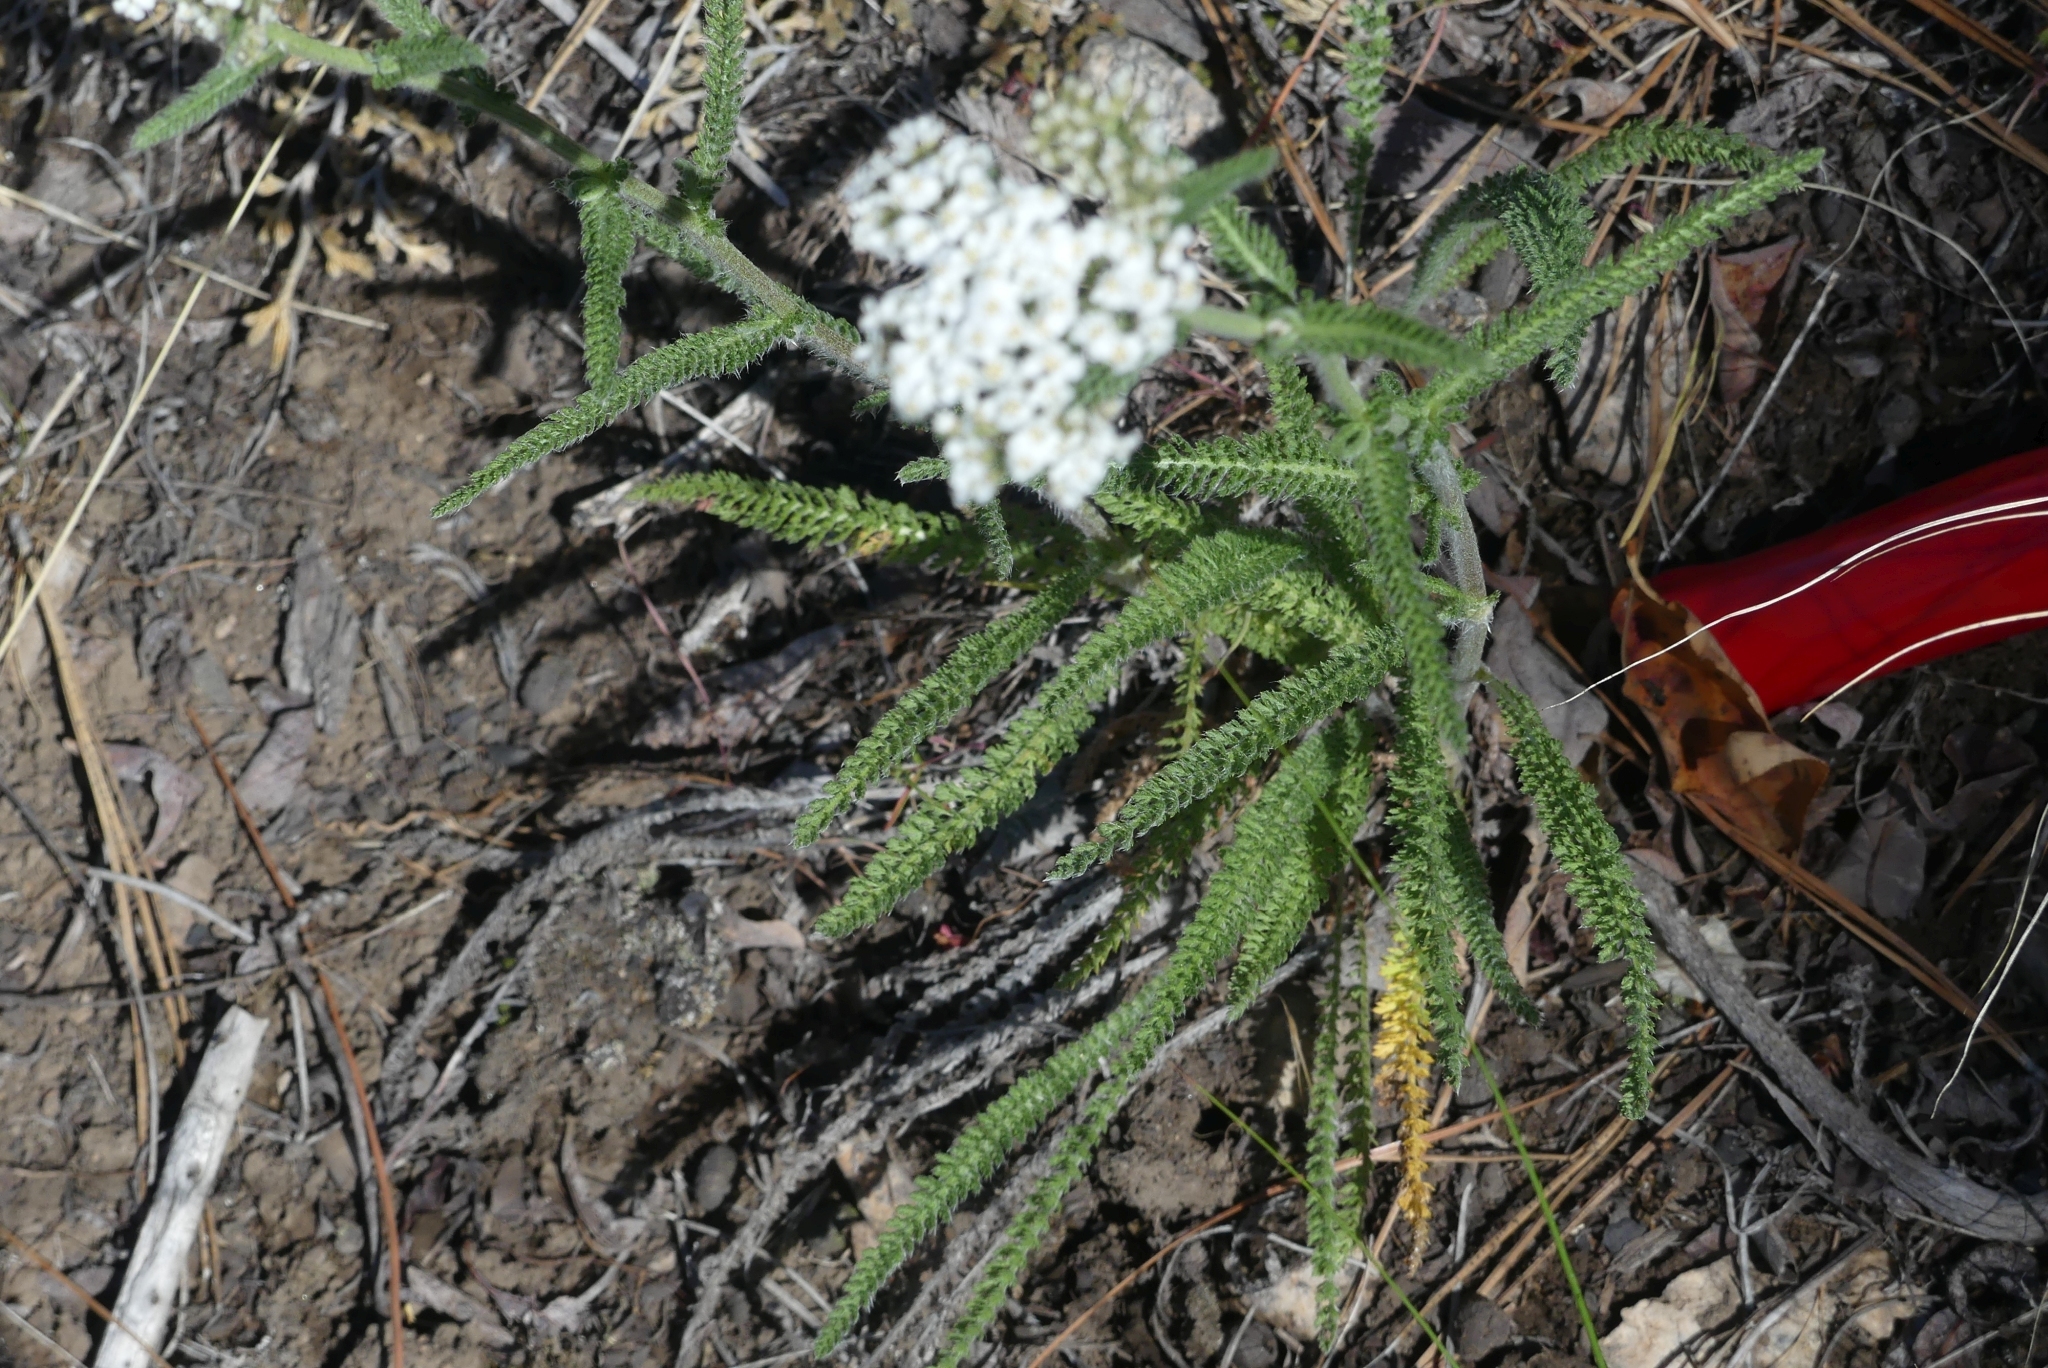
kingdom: Plantae
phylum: Tracheophyta
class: Magnoliopsida
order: Asterales
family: Asteraceae
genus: Achillea
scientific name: Achillea millefolium
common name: Yarrow
